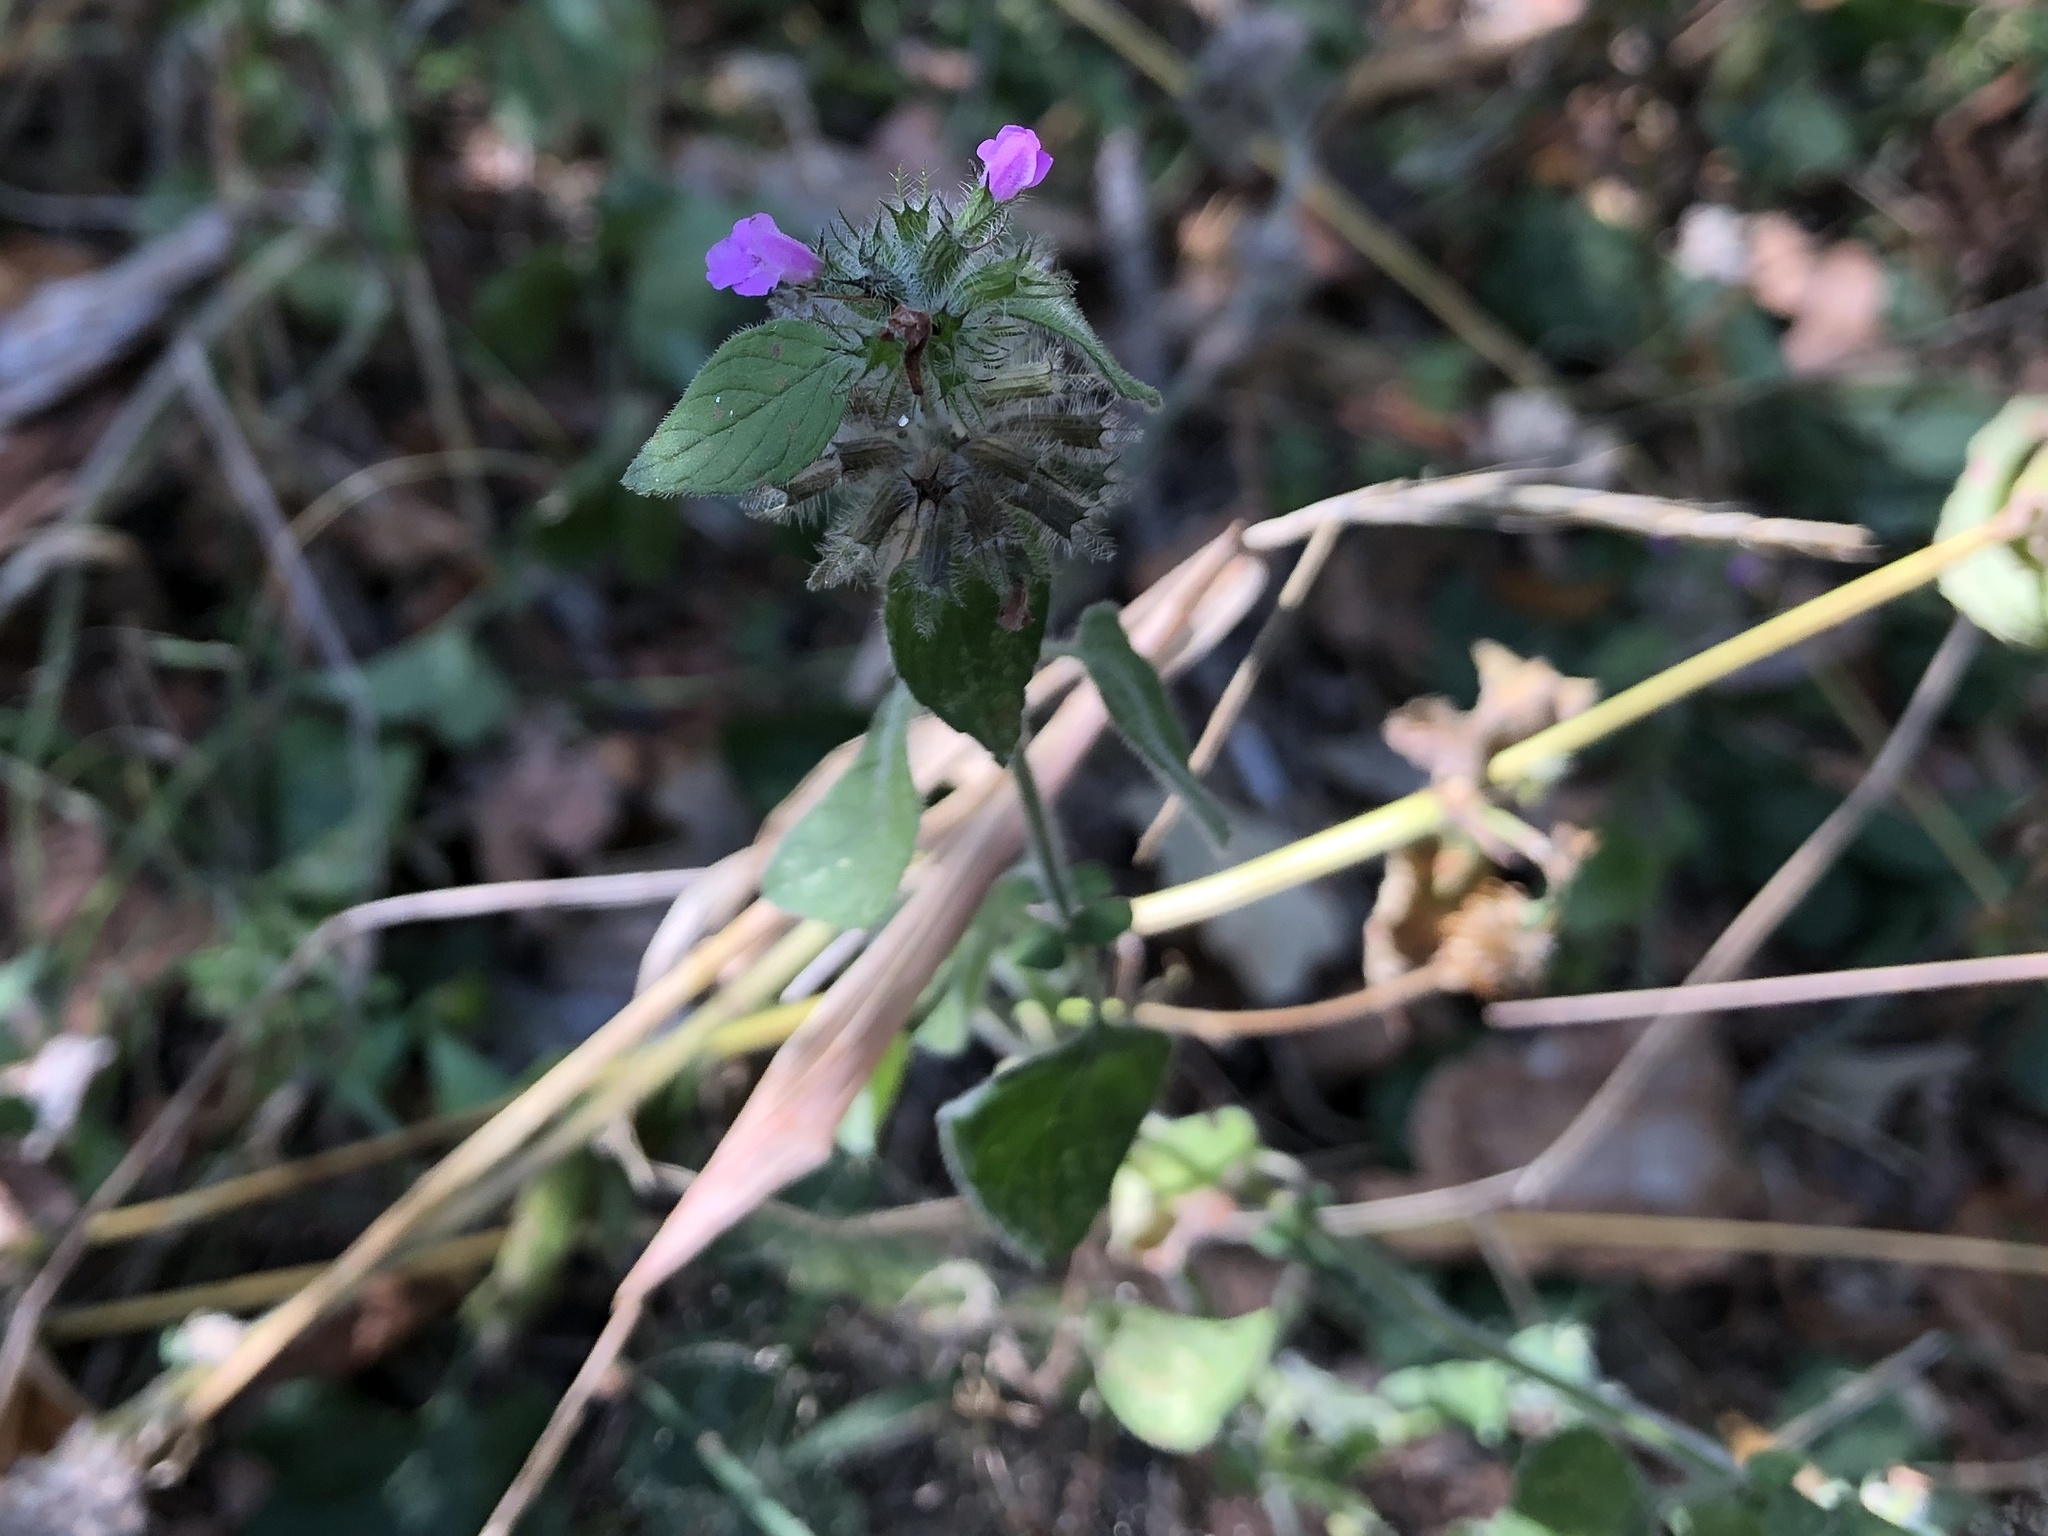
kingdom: Plantae
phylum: Tracheophyta
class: Magnoliopsida
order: Lamiales
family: Lamiaceae
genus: Clinopodium
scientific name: Clinopodium vulgare
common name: Wild basil
